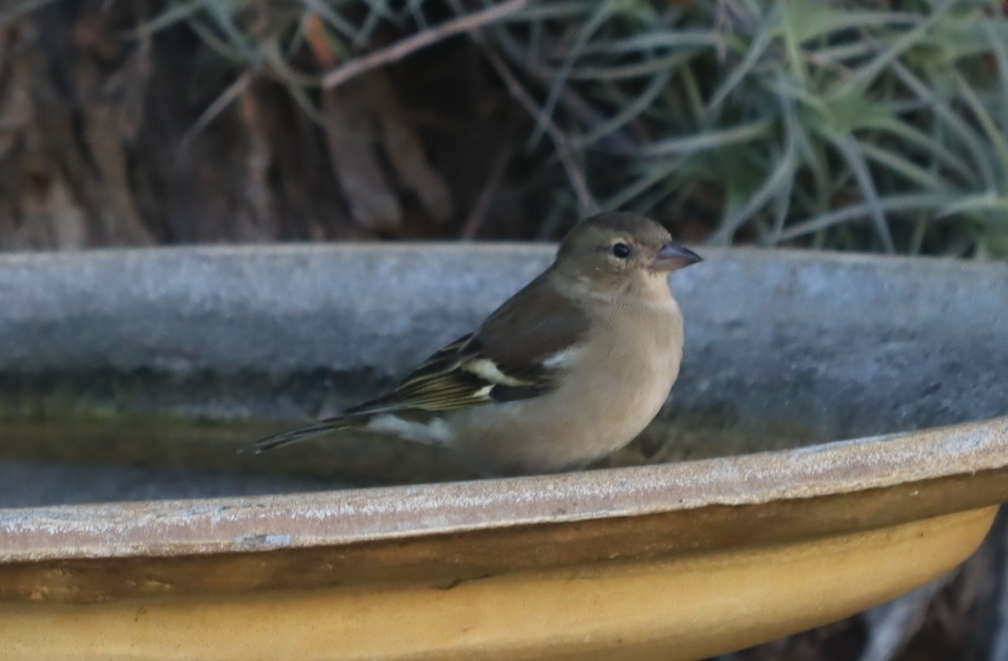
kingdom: Animalia
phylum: Chordata
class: Aves
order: Passeriformes
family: Fringillidae
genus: Fringilla
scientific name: Fringilla coelebs
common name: Common chaffinch
